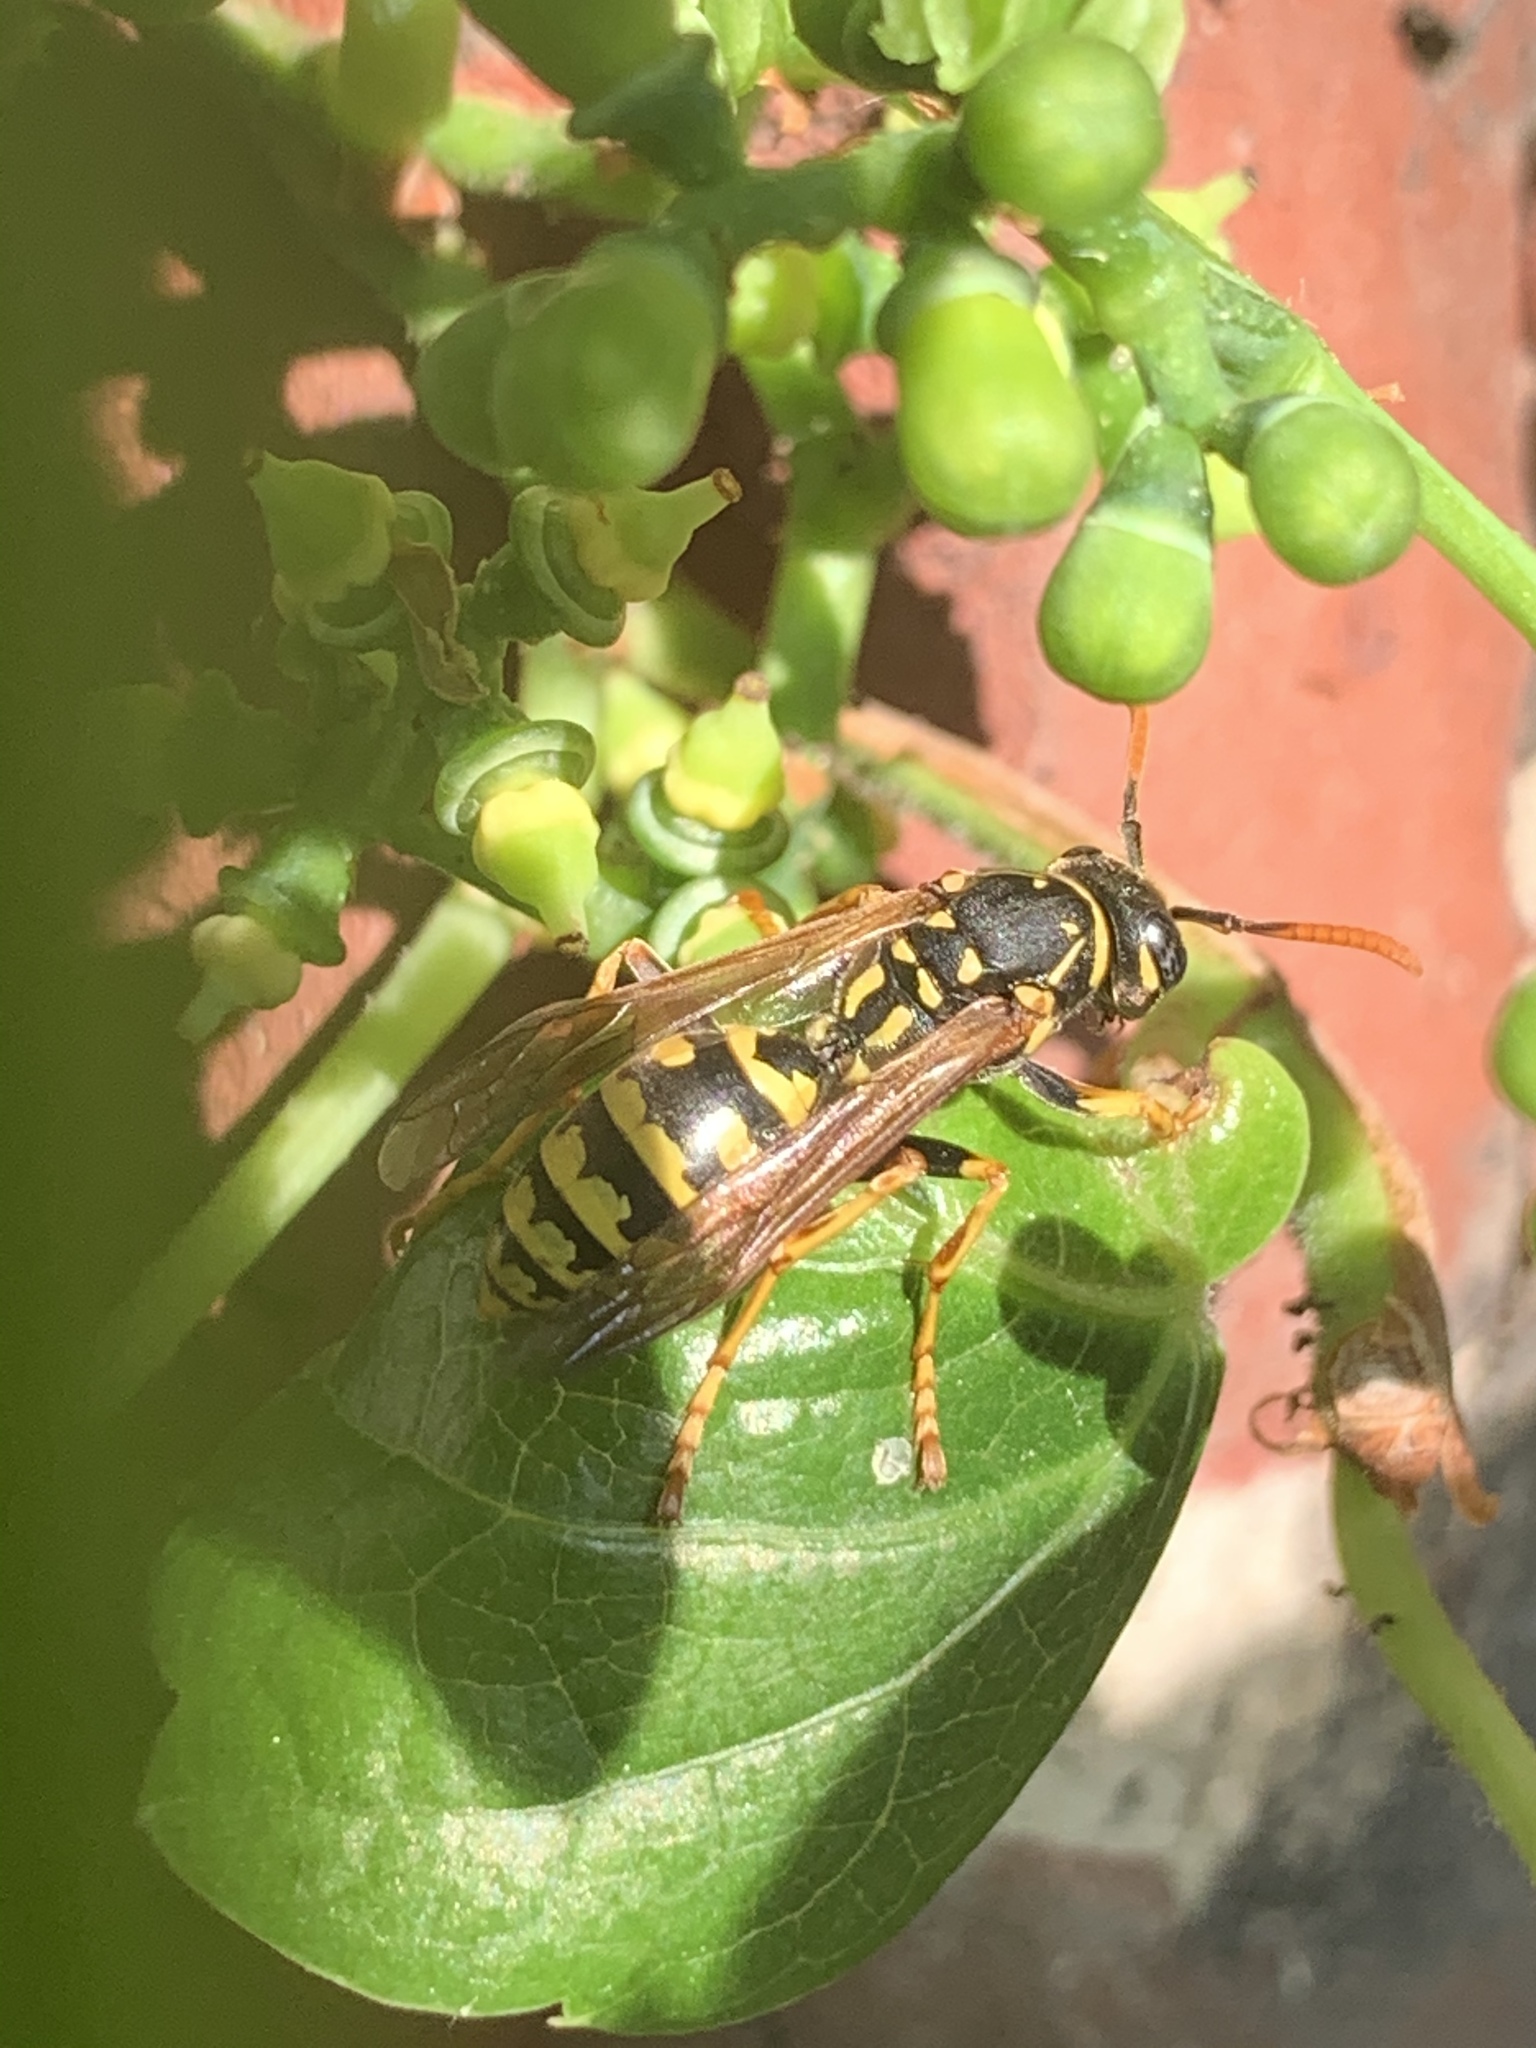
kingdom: Animalia
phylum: Arthropoda
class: Insecta
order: Hymenoptera
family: Eumenidae
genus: Polistes
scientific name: Polistes dominula
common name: Paper wasp
